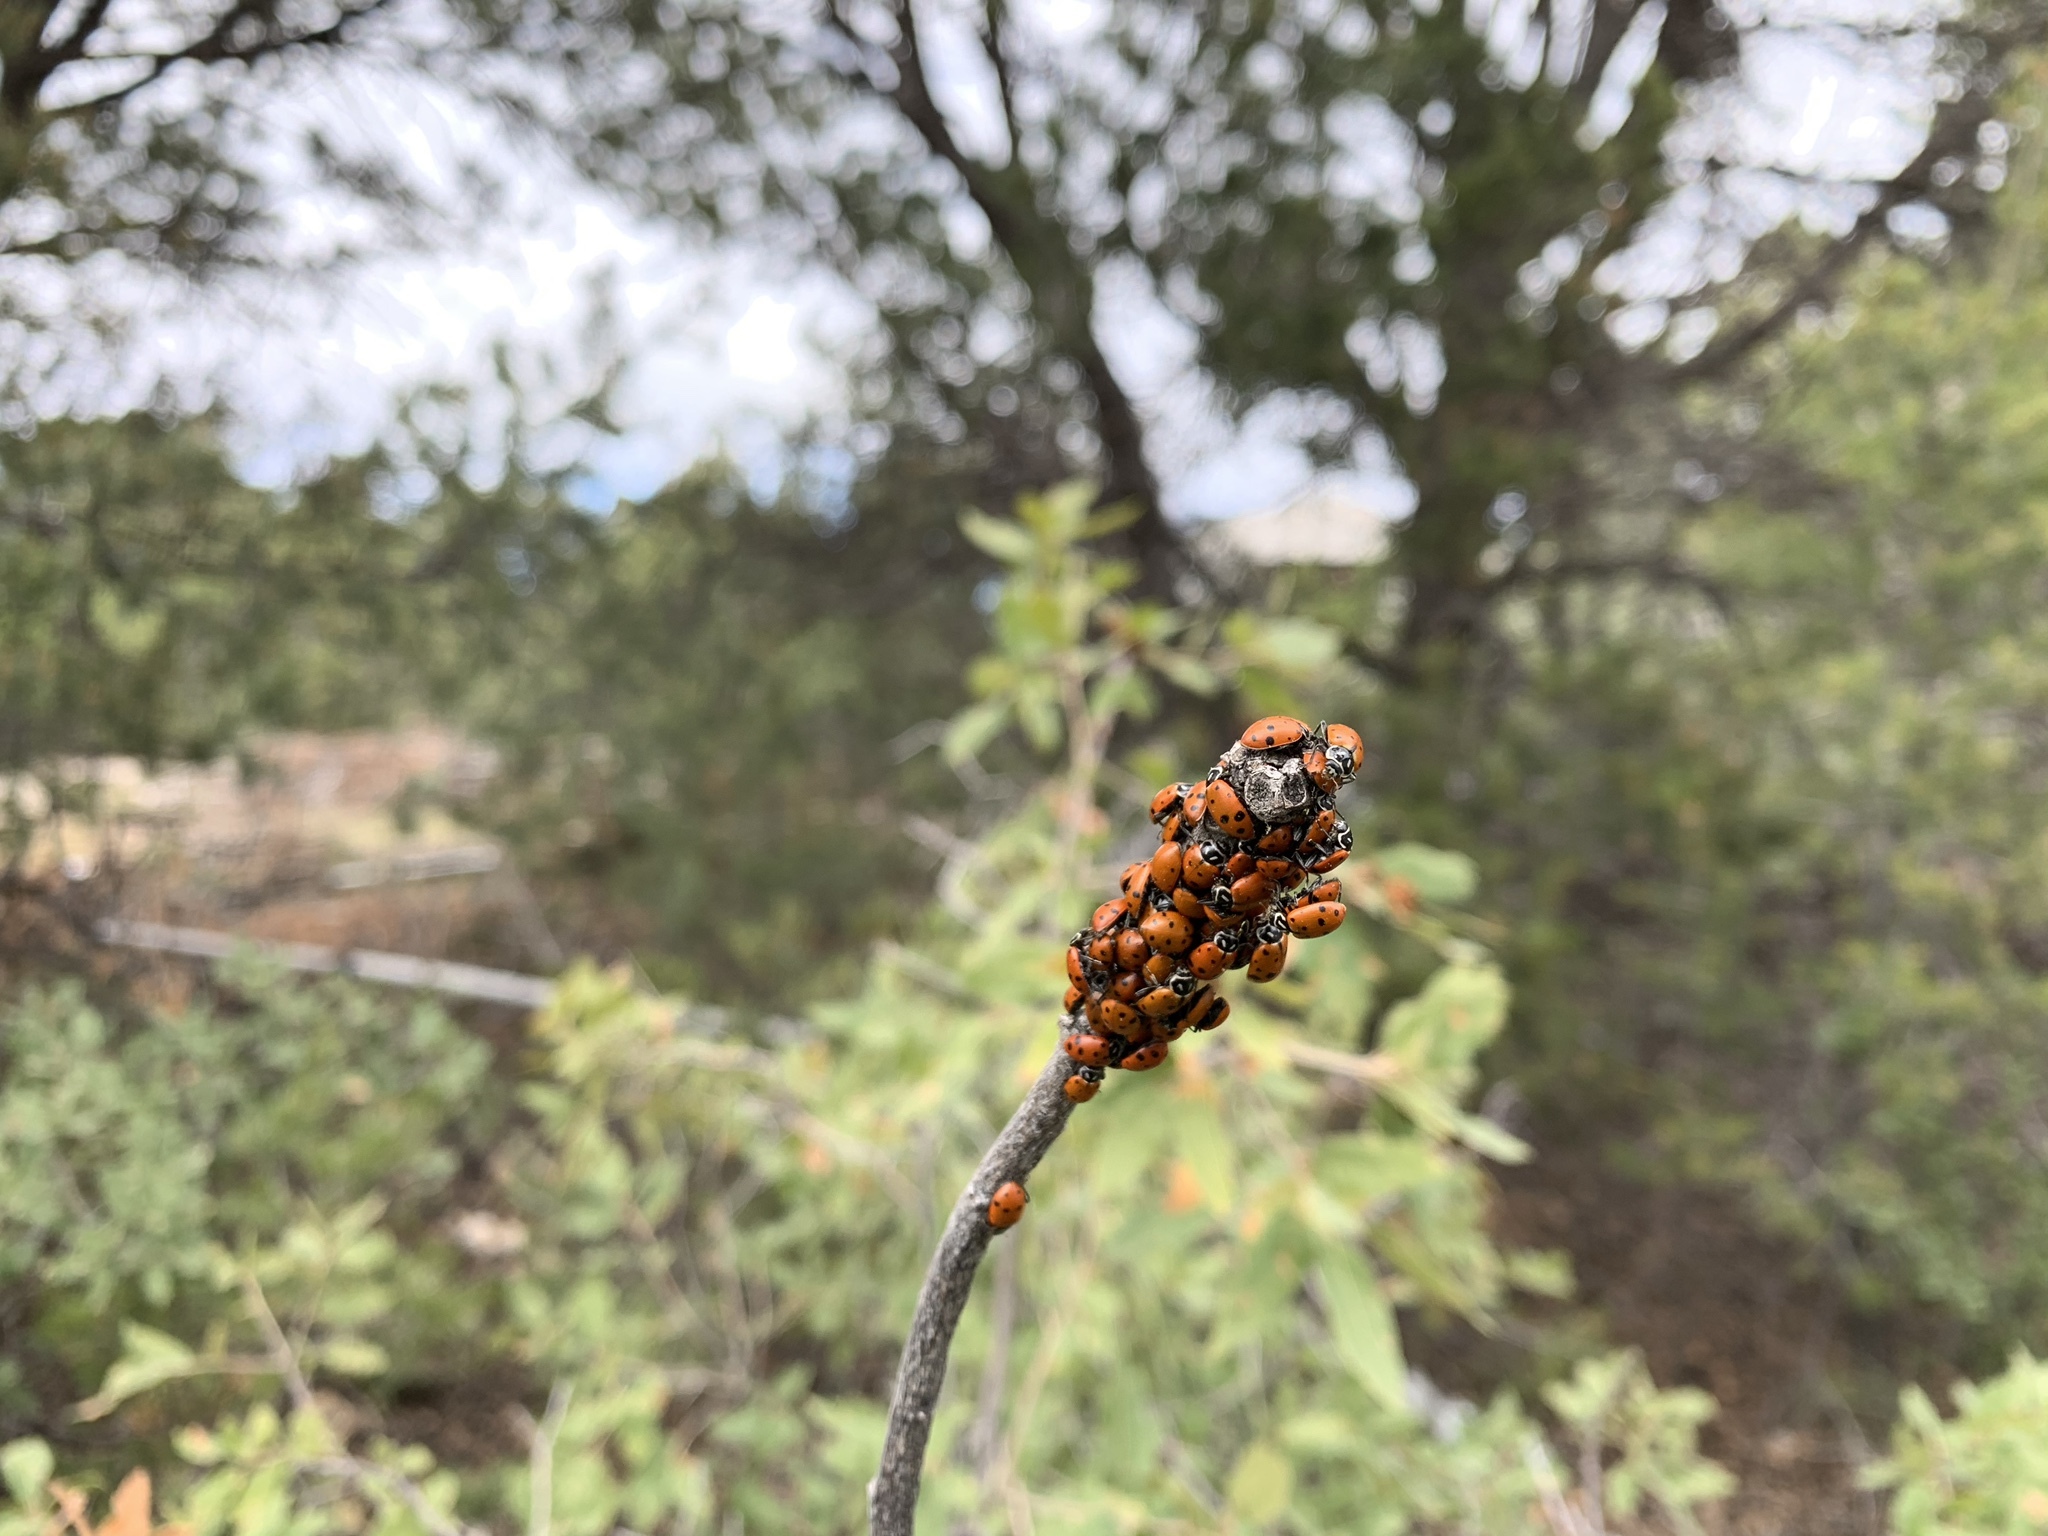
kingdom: Animalia
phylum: Arthropoda
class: Insecta
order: Coleoptera
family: Coccinellidae
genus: Hippodamia
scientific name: Hippodamia convergens
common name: Convergent lady beetle
